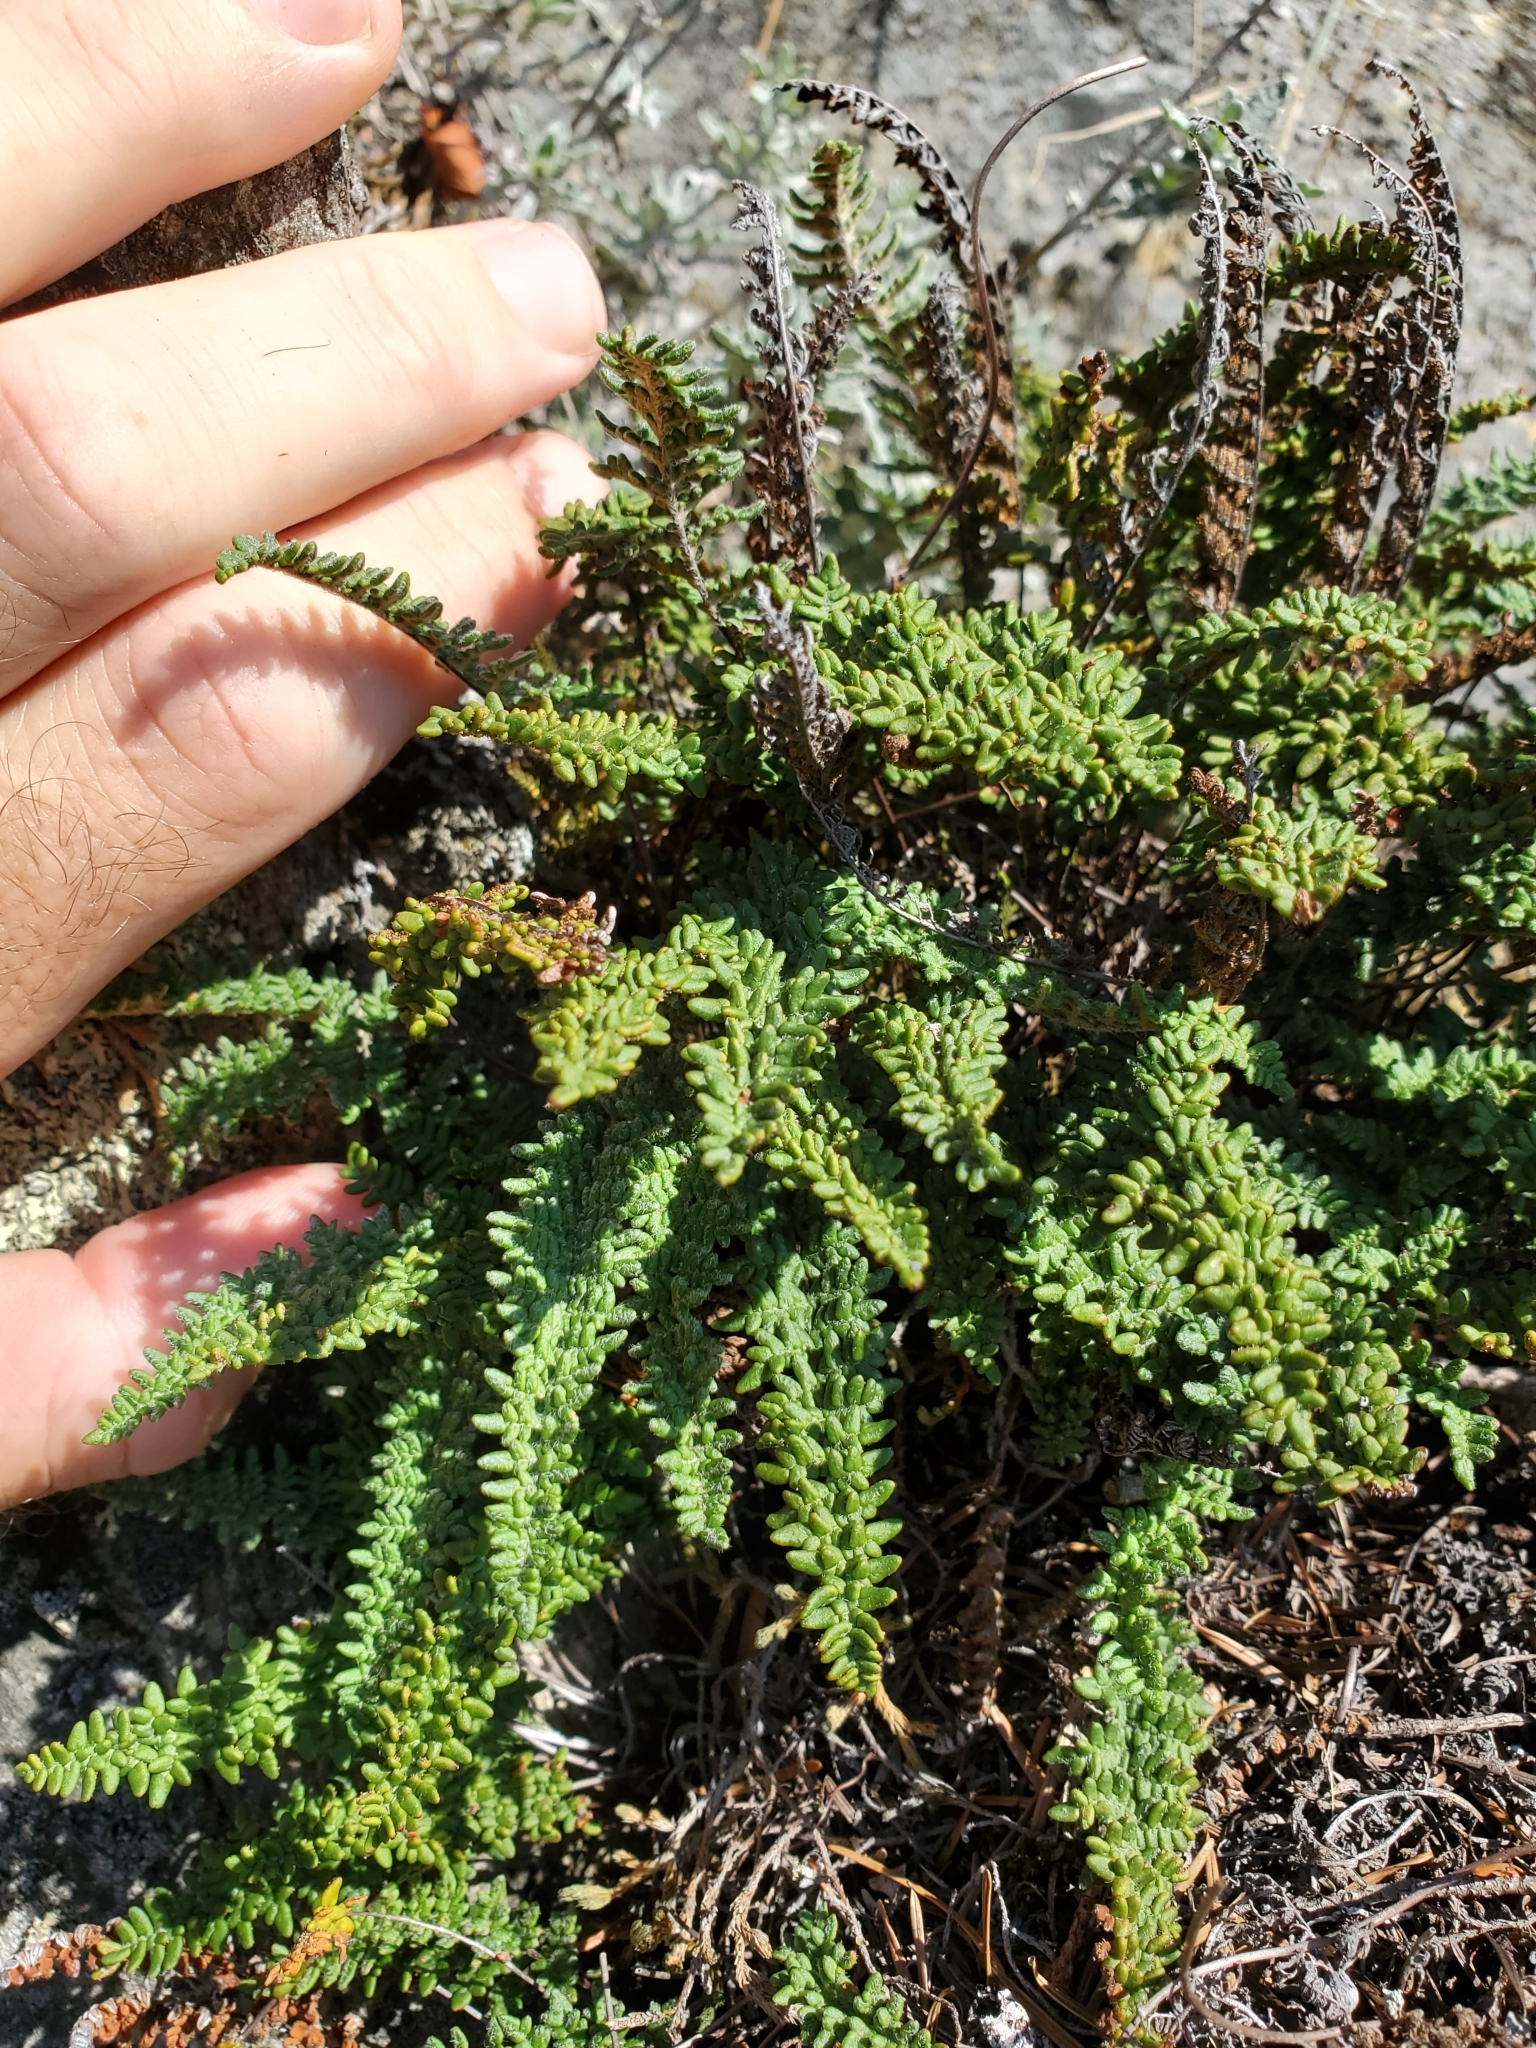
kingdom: Plantae
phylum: Tracheophyta
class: Polypodiopsida
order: Polypodiales
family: Pteridaceae
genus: Myriopteris
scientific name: Myriopteris gracillima
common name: Lace fern
